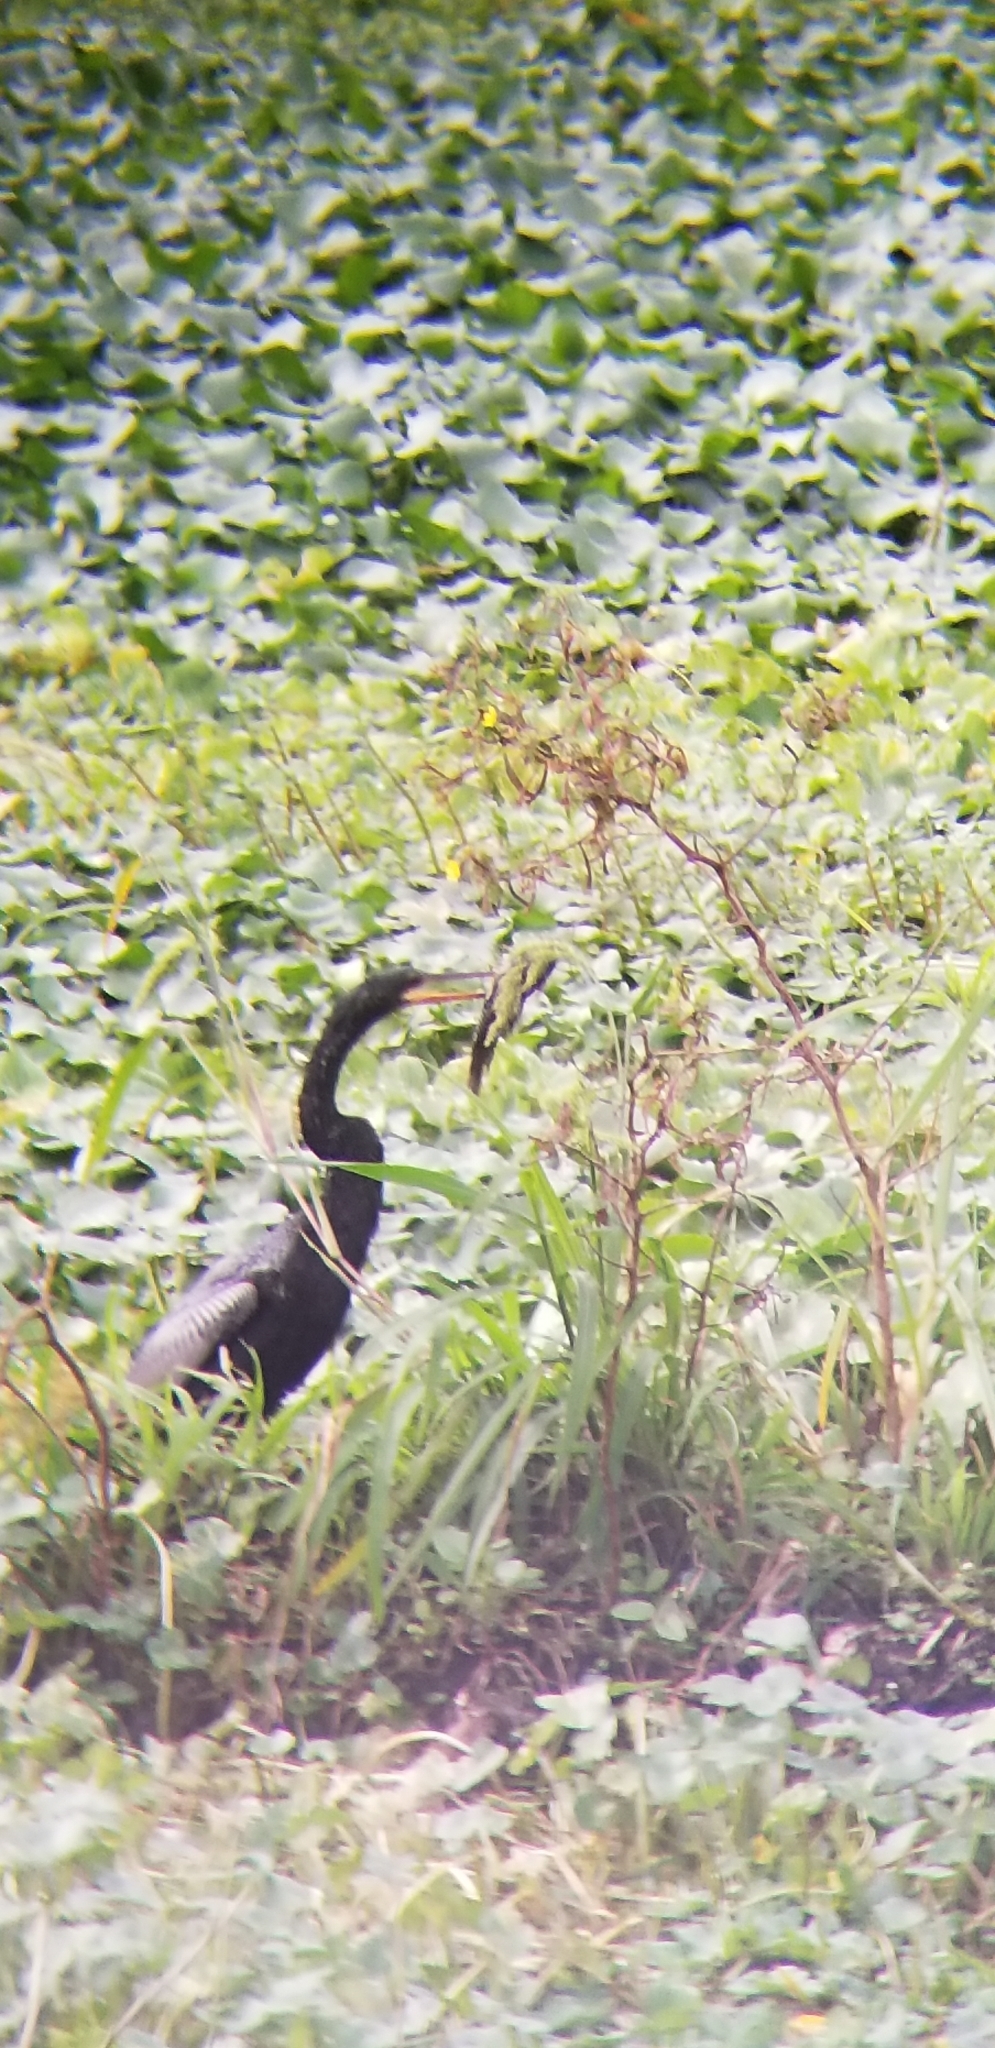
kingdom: Animalia
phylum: Chordata
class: Aves
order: Suliformes
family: Anhingidae
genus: Anhinga
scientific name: Anhinga anhinga
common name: Anhinga
